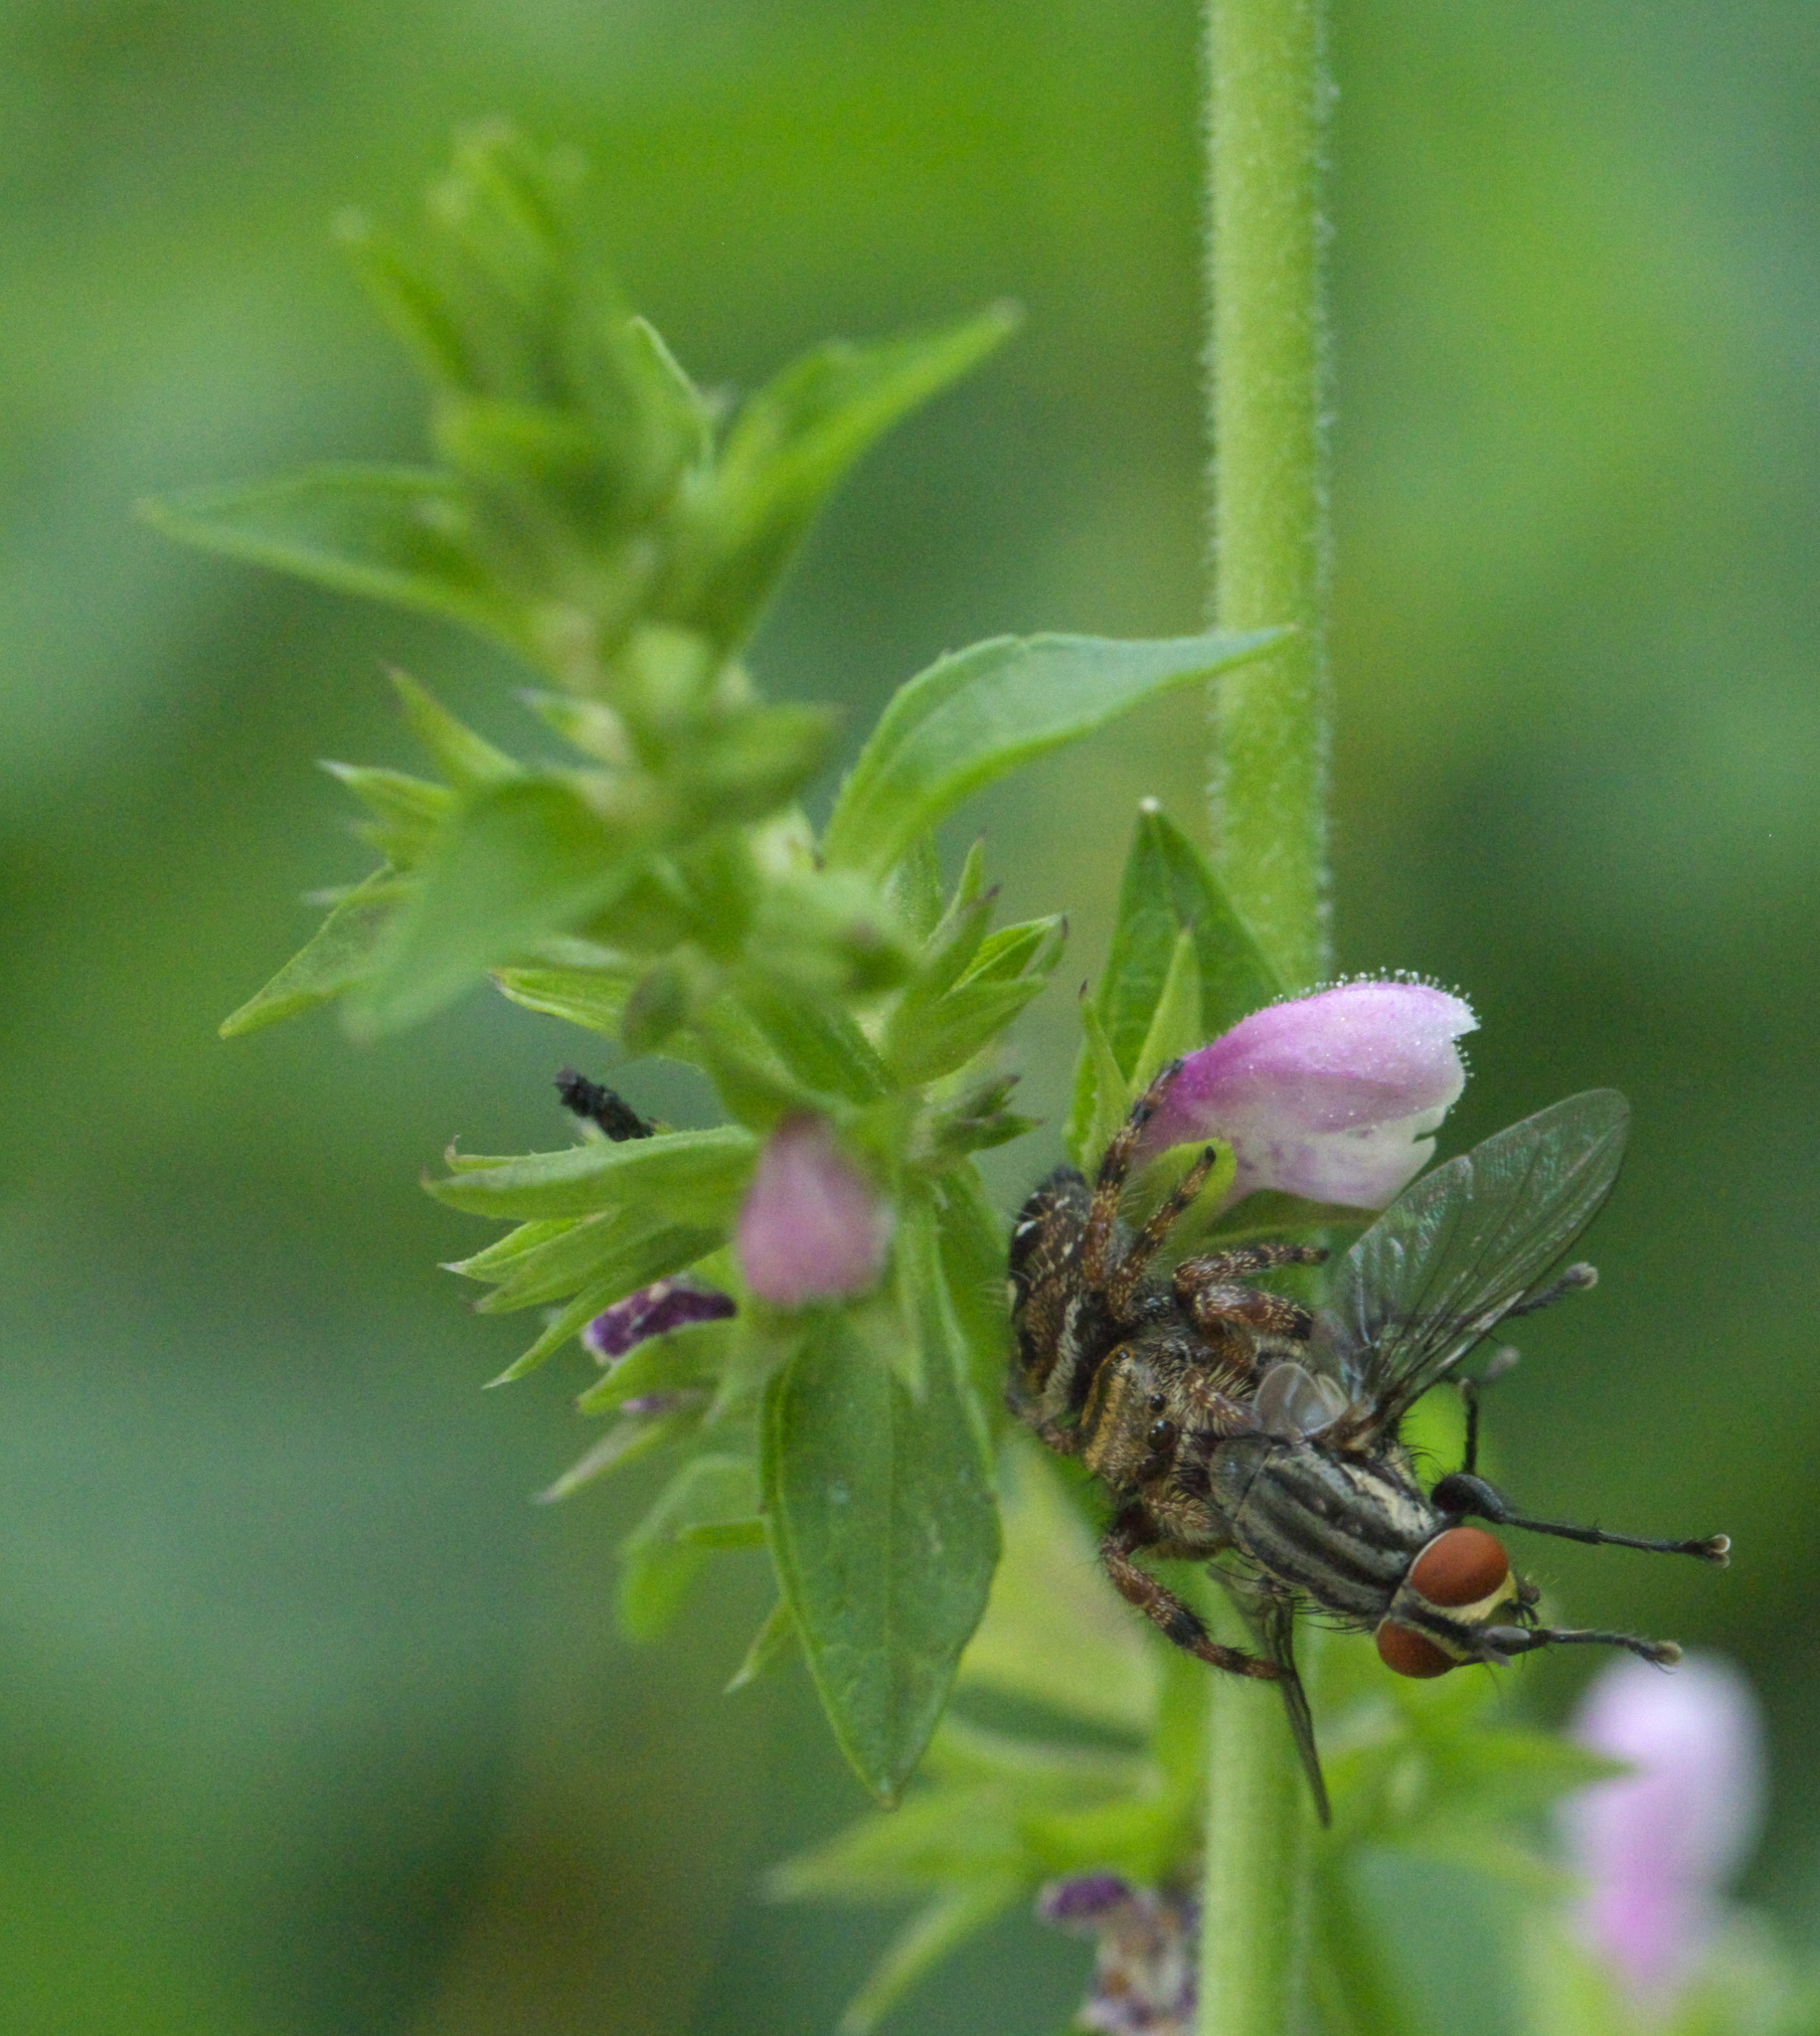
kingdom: Animalia
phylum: Arthropoda
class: Arachnida
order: Araneae
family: Salticidae
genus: Phidippus
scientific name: Phidippus audax
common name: Bold jumper
